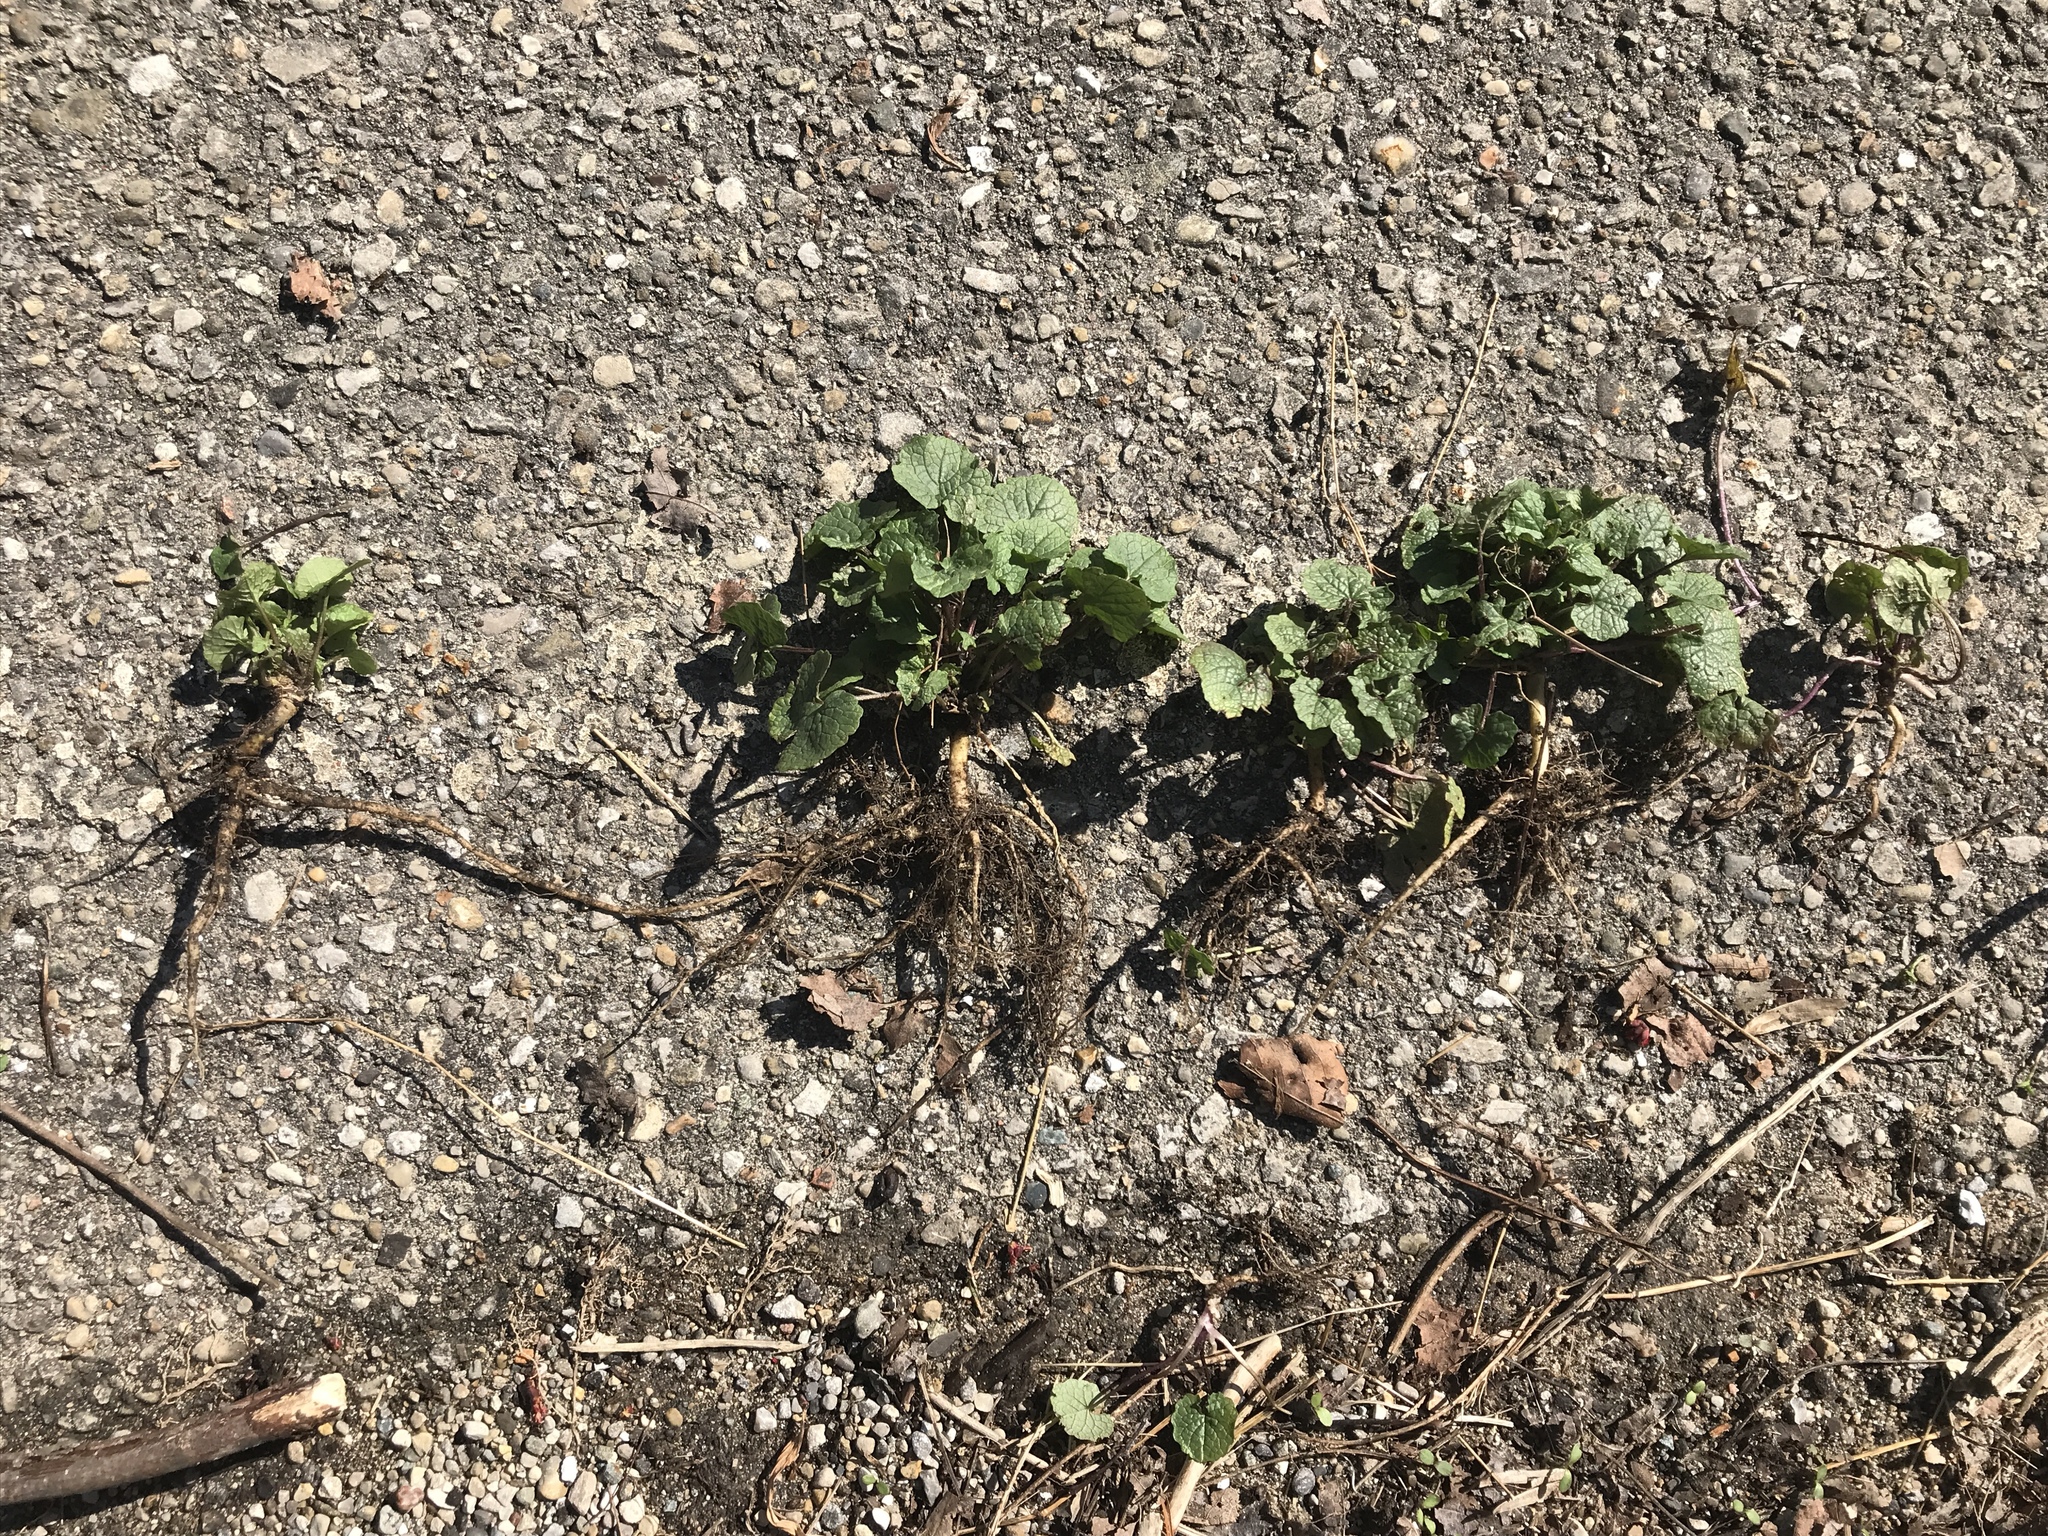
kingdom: Plantae
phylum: Tracheophyta
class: Magnoliopsida
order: Brassicales
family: Brassicaceae
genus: Alliaria
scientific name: Alliaria petiolata
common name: Garlic mustard
